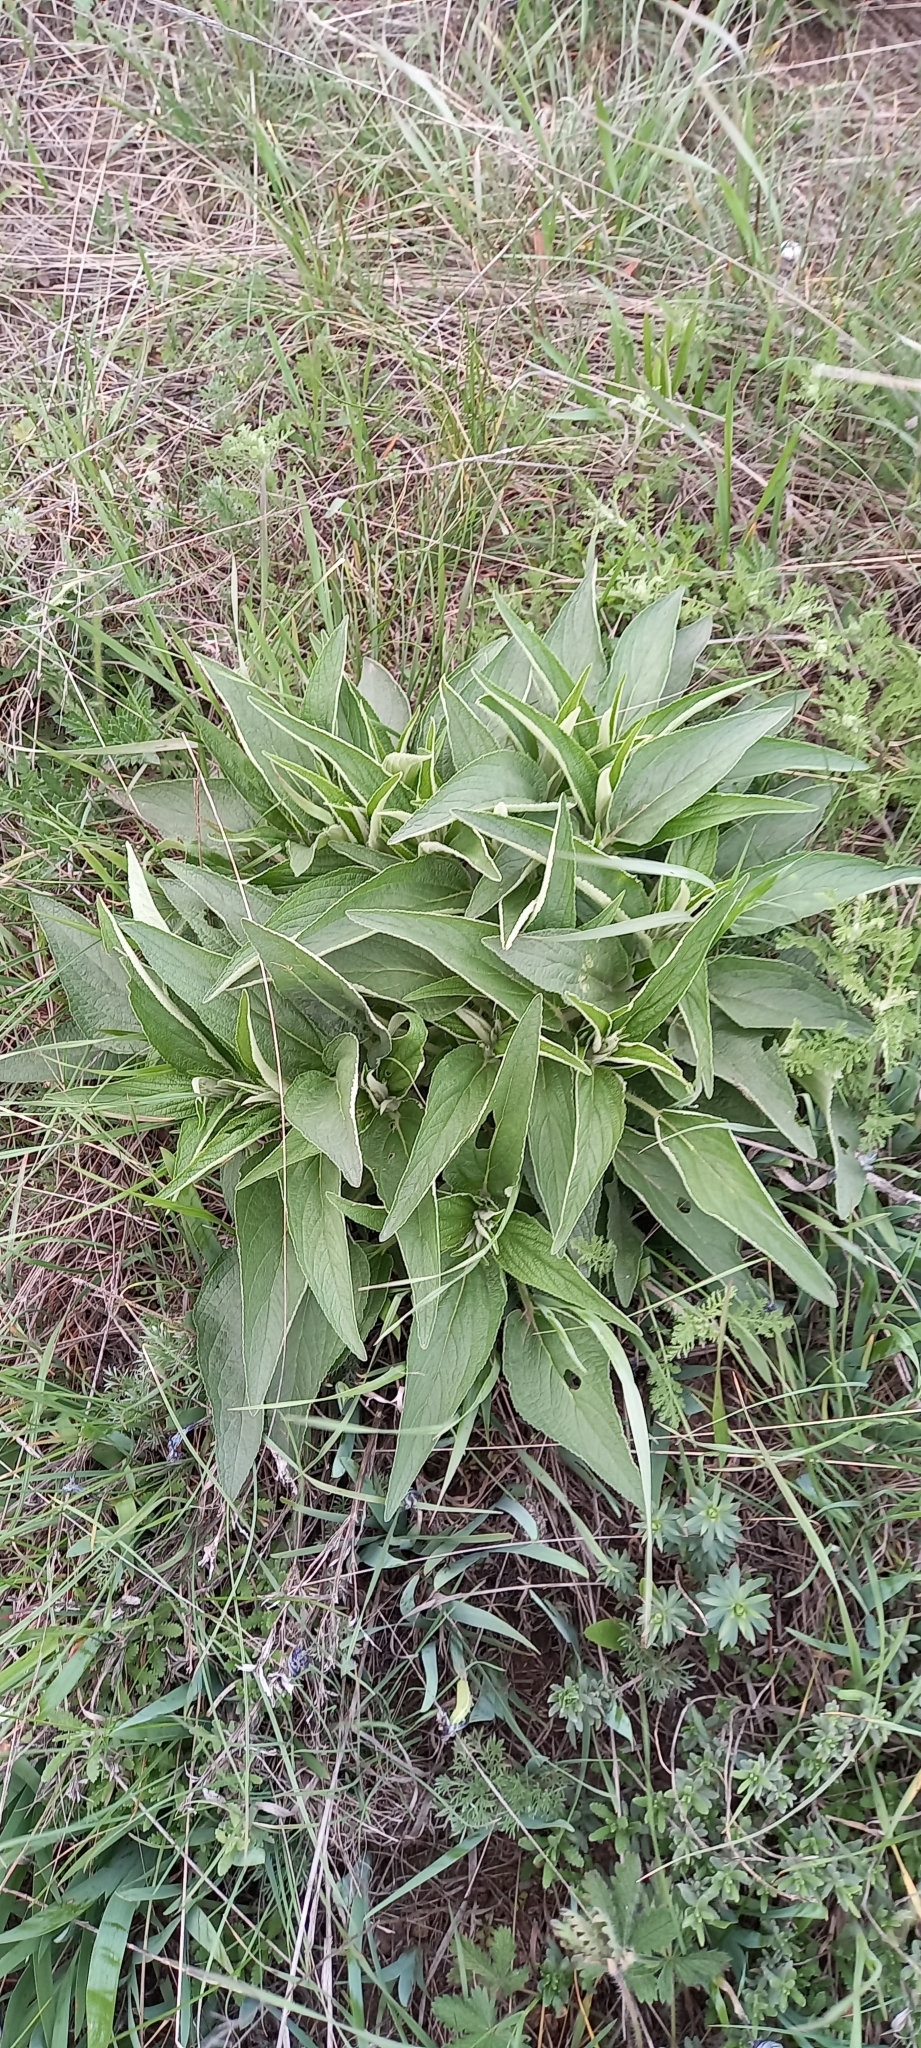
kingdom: Plantae
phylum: Tracheophyta
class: Magnoliopsida
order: Lamiales
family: Lamiaceae
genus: Phlomis
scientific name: Phlomis herba-venti
